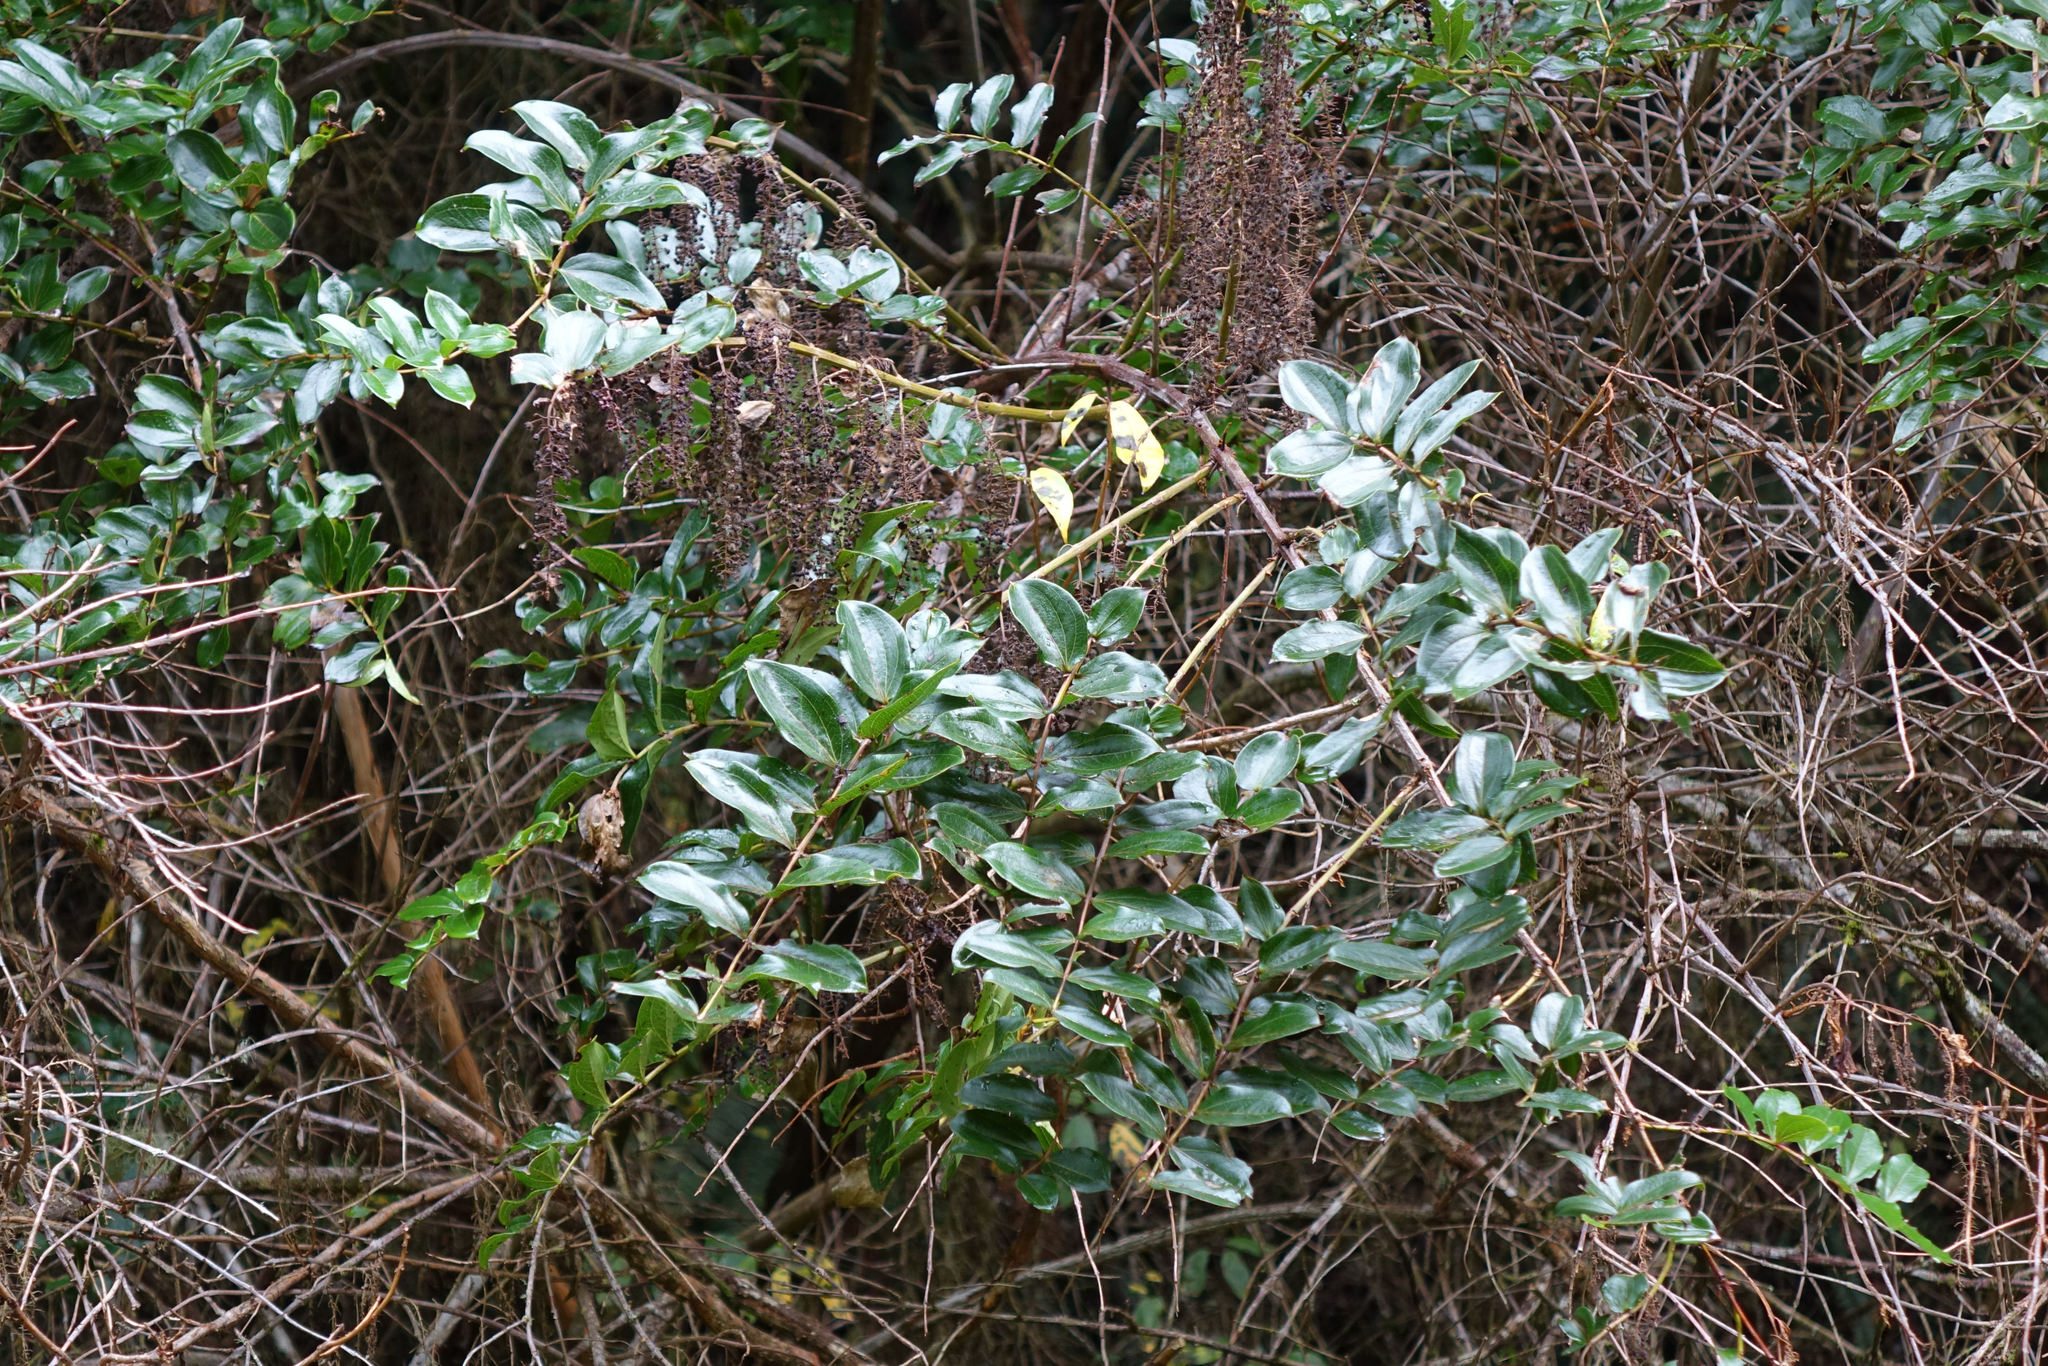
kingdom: Plantae
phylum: Tracheophyta
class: Magnoliopsida
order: Cucurbitales
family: Coriariaceae
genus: Coriaria
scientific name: Coriaria arborea
